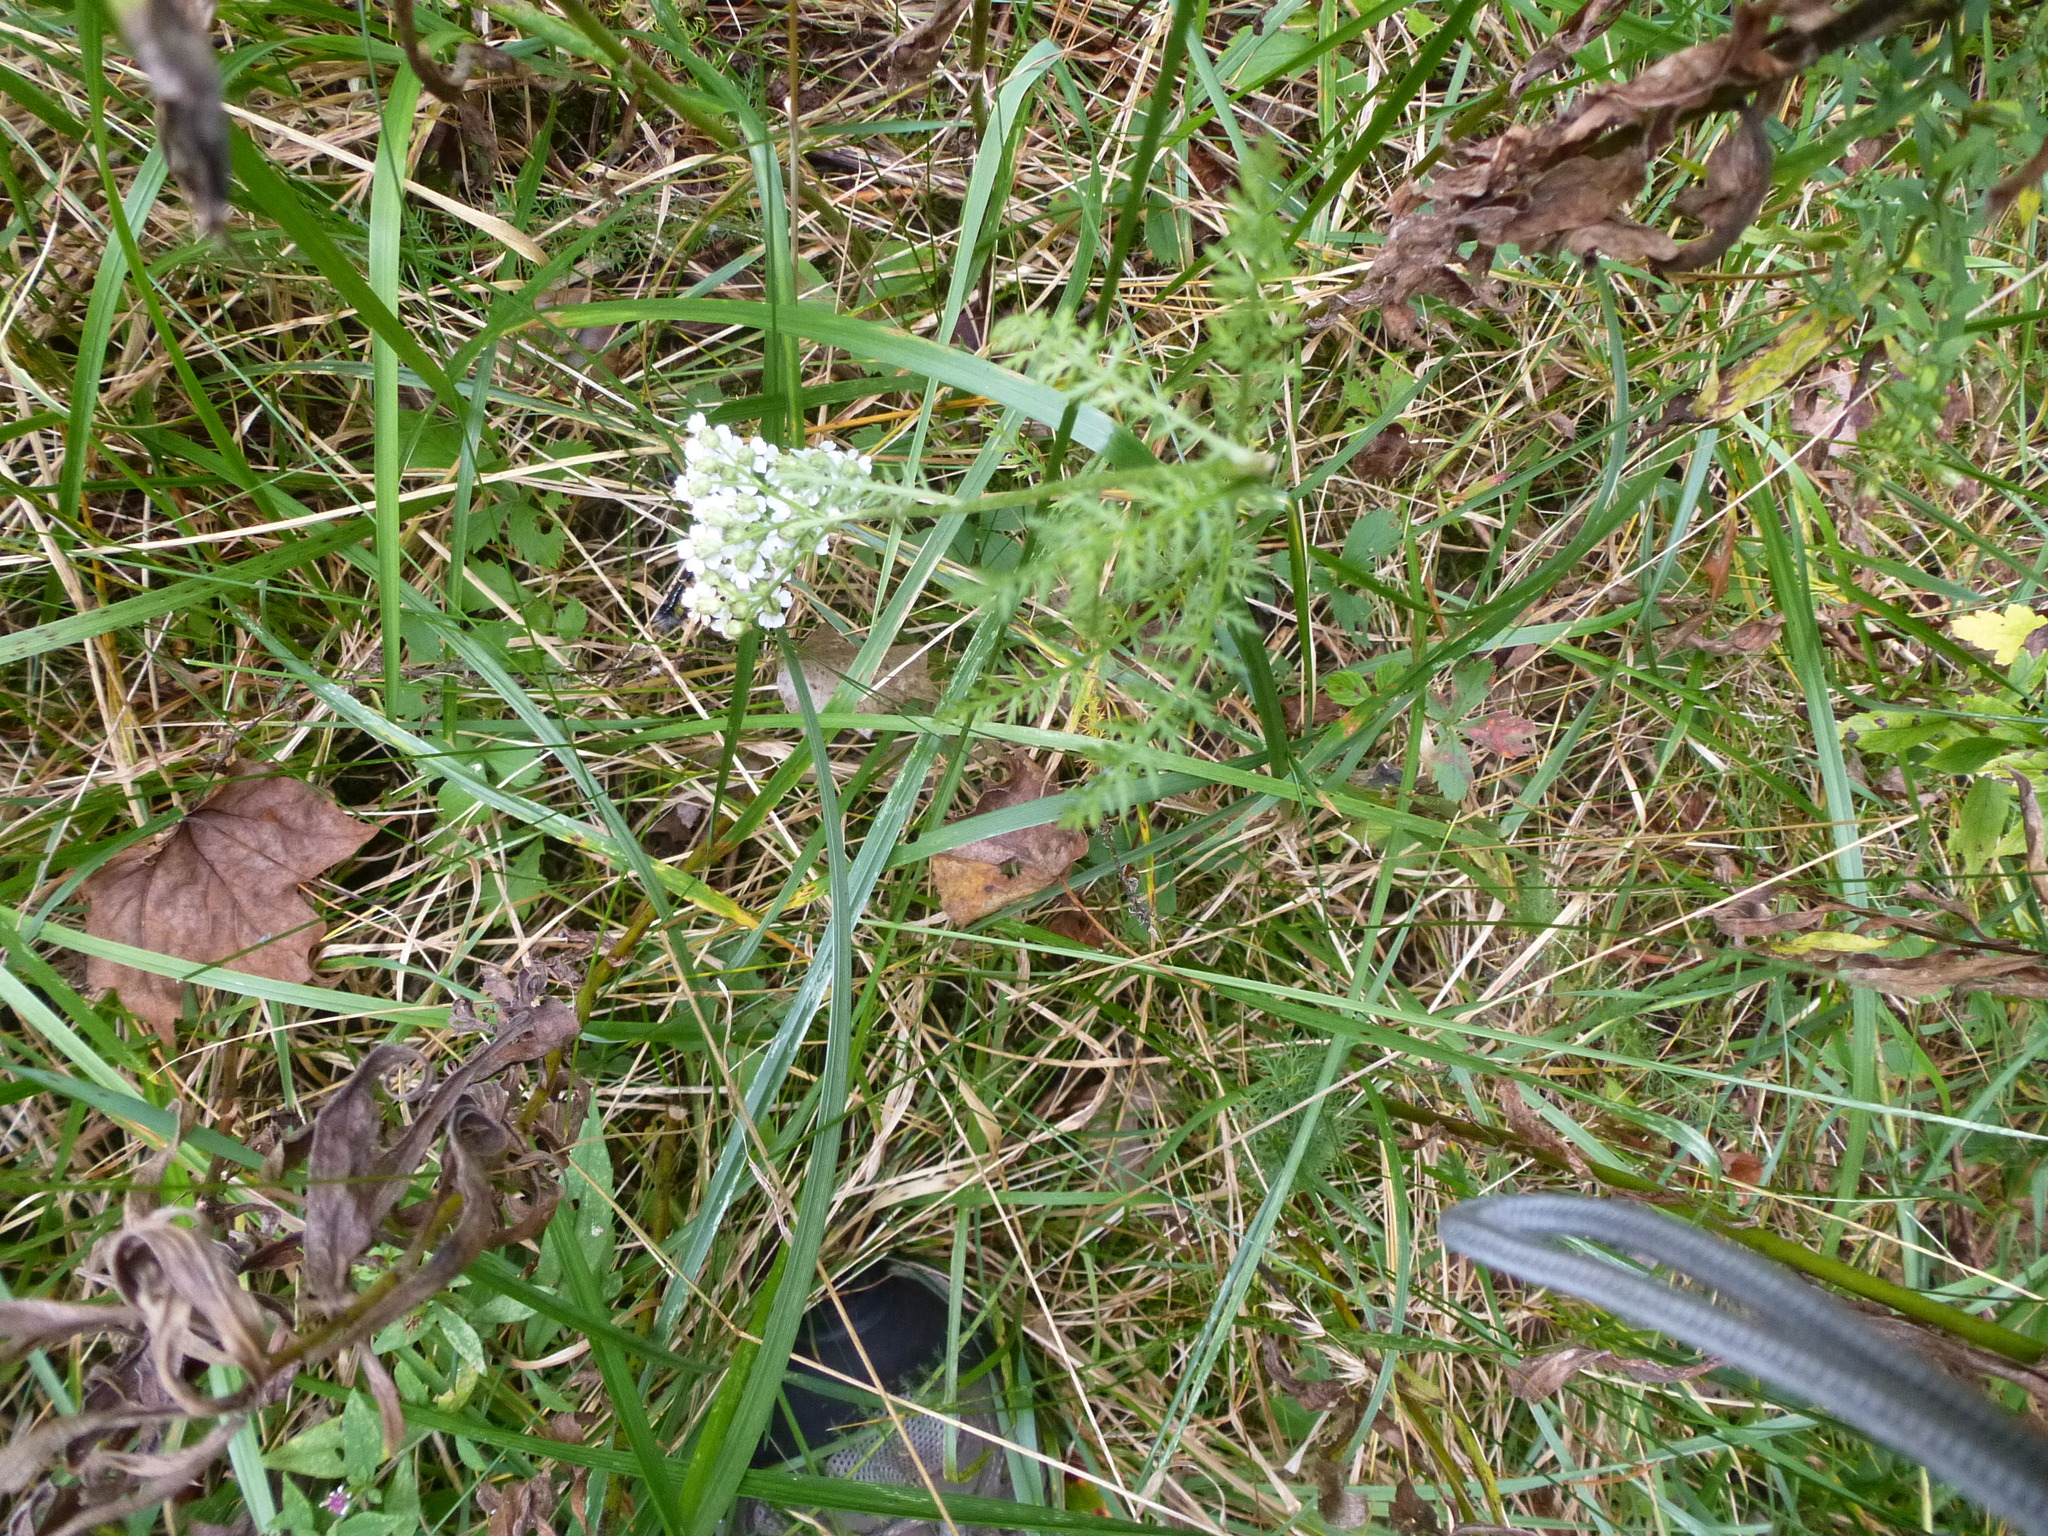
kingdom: Plantae
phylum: Tracheophyta
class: Magnoliopsida
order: Asterales
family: Asteraceae
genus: Achillea
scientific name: Achillea millefolium
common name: Yarrow
